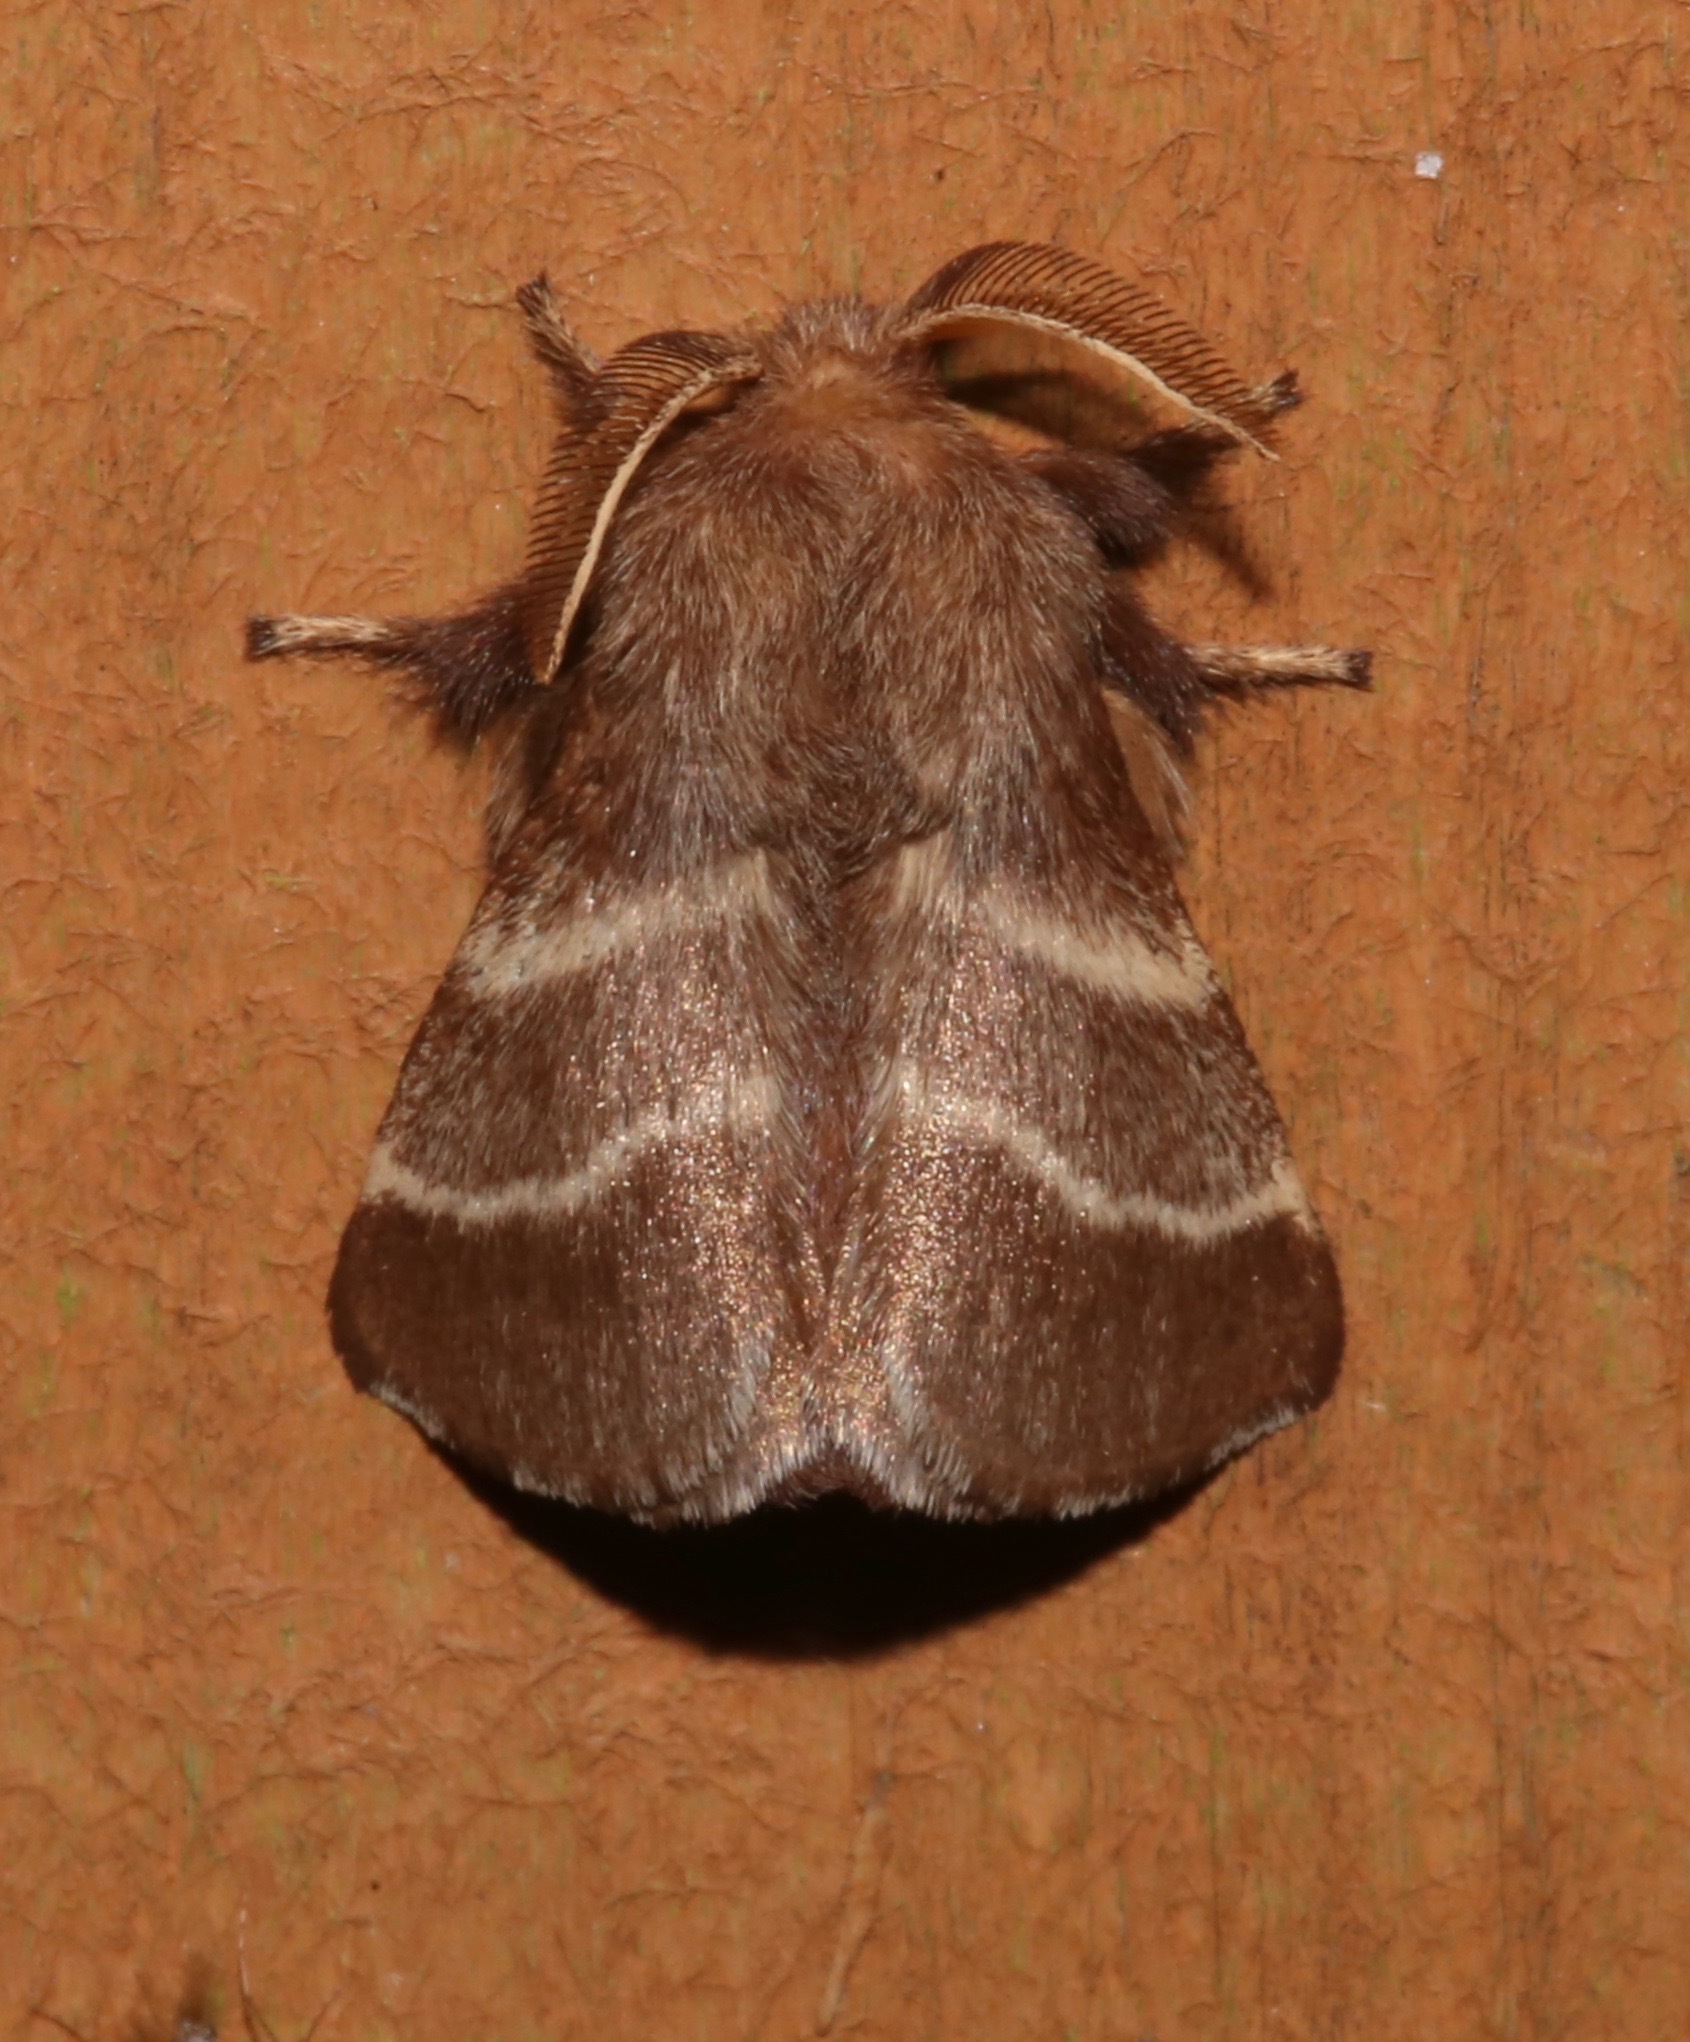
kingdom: Animalia
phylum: Arthropoda
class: Insecta
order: Lepidoptera
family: Lasiocampidae
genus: Malacosoma
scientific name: Malacosoma americana
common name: Eastern tent caterpillar moth
